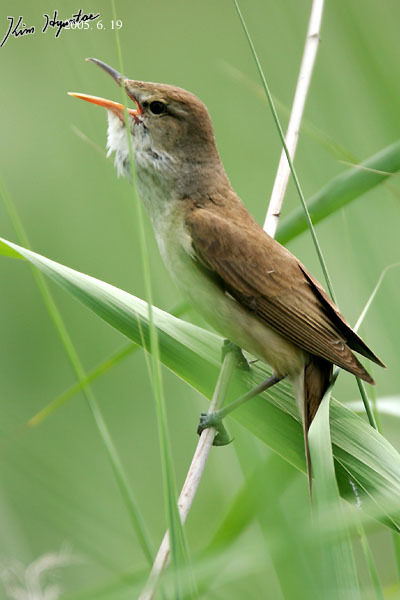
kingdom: Animalia
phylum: Chordata
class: Aves
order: Passeriformes
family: Acrocephalidae
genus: Acrocephalus
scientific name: Acrocephalus orientalis
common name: Oriental reed warbler
